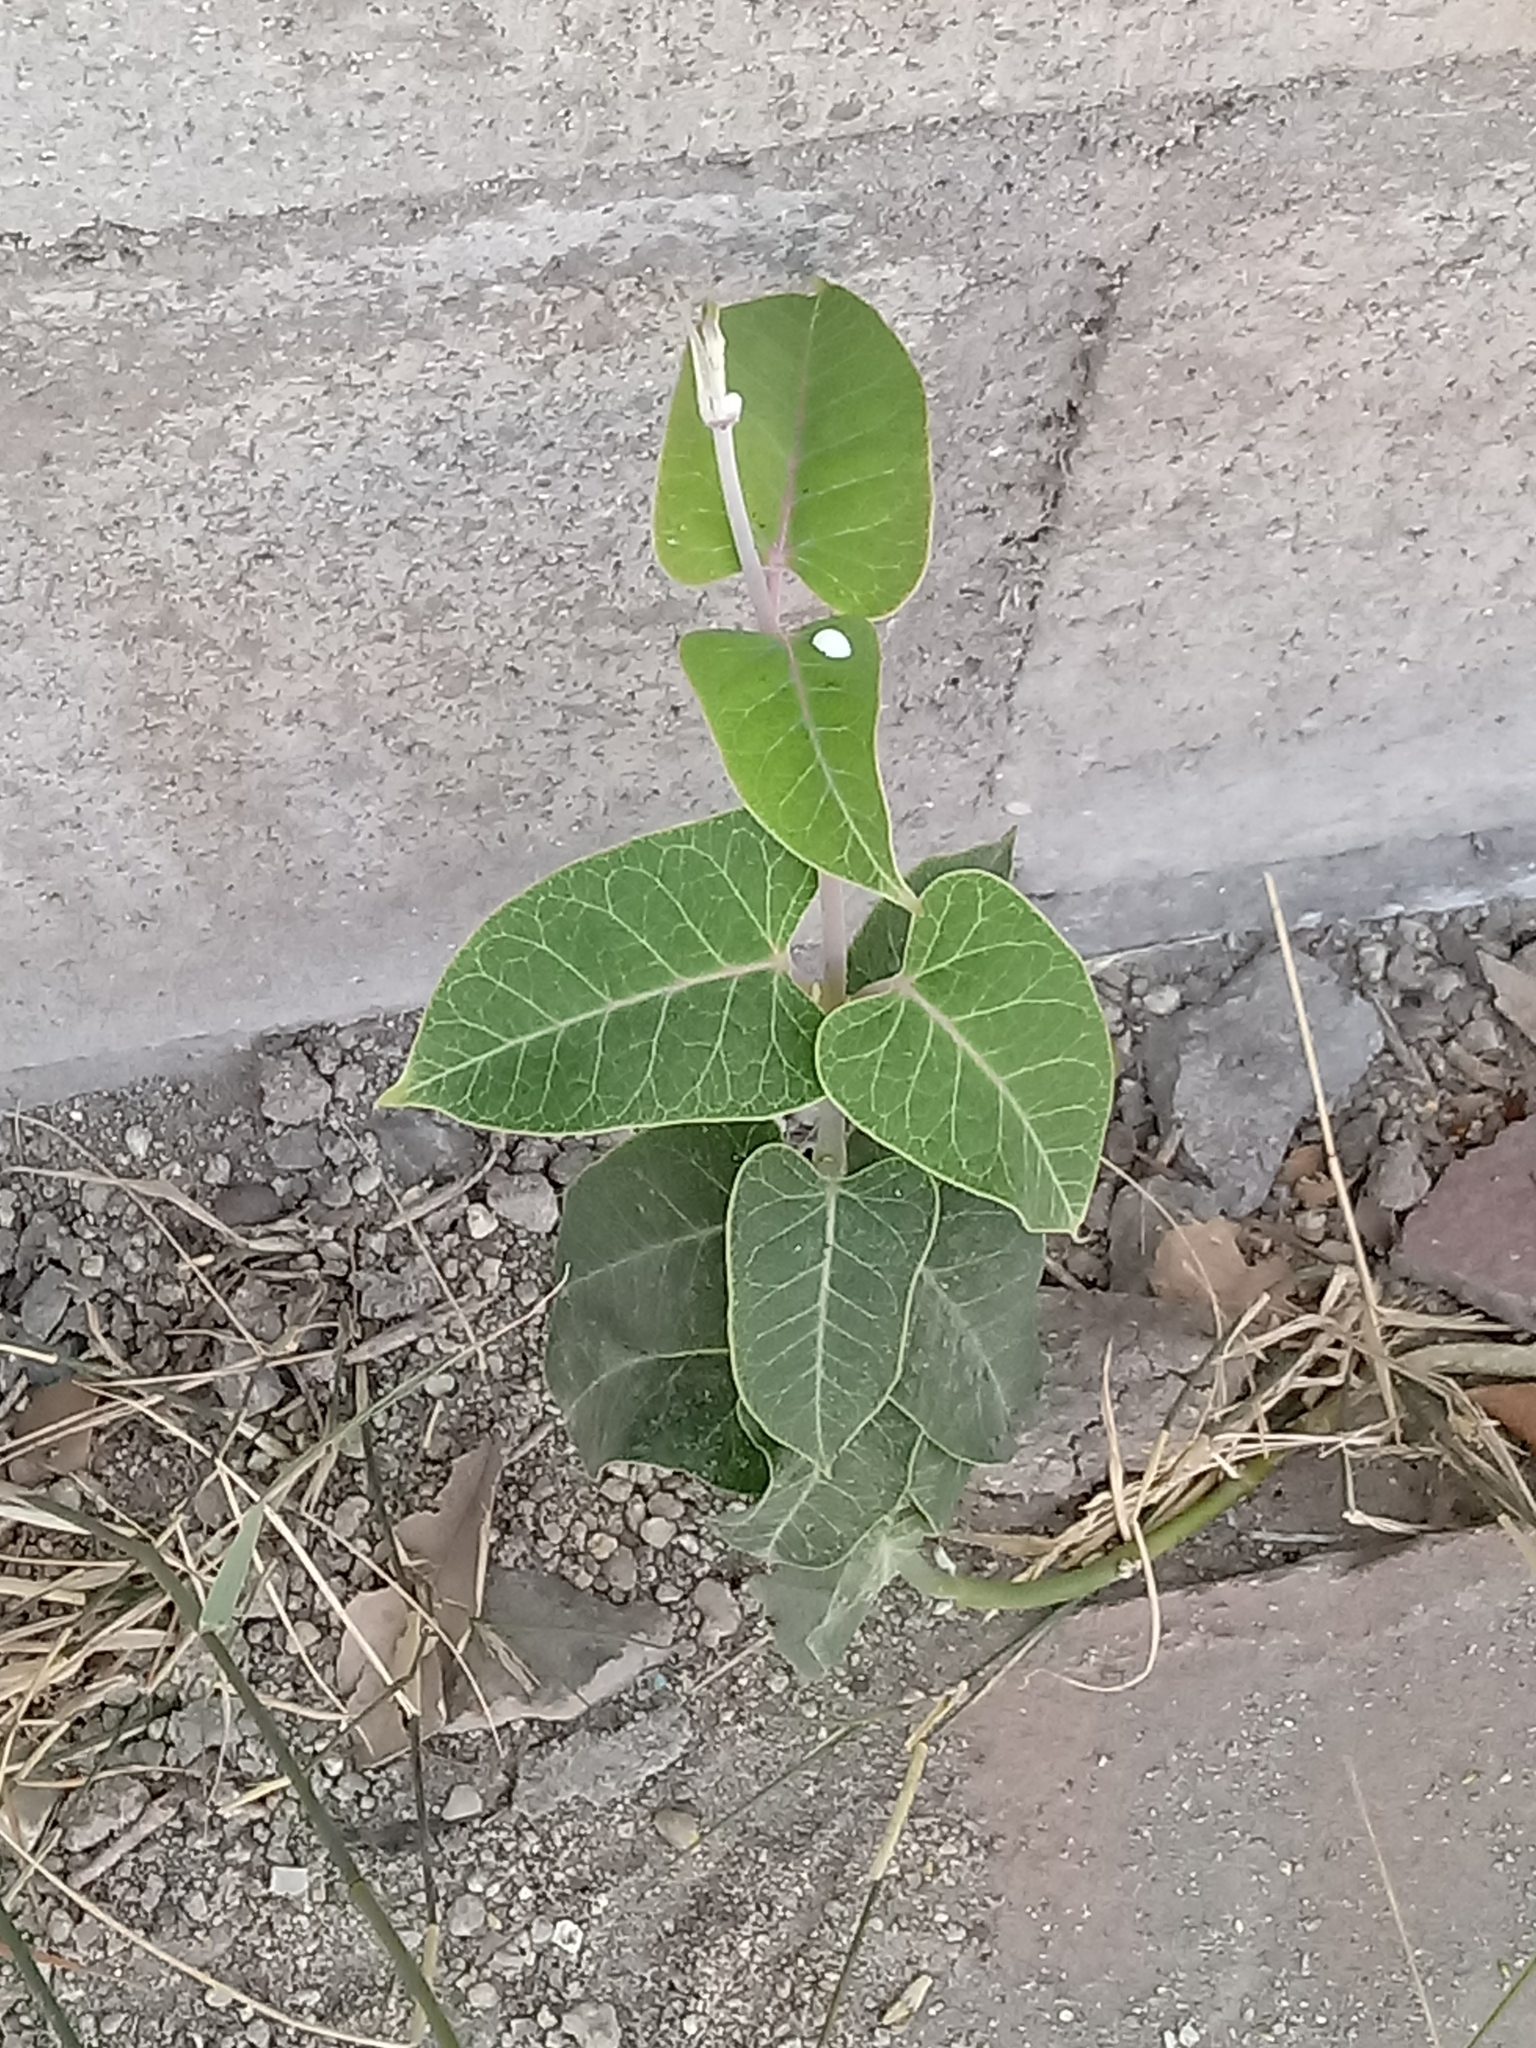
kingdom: Plantae
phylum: Tracheophyta
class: Magnoliopsida
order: Gentianales
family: Apocynaceae
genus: Araujia
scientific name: Araujia sericifera
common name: White bladderflower
